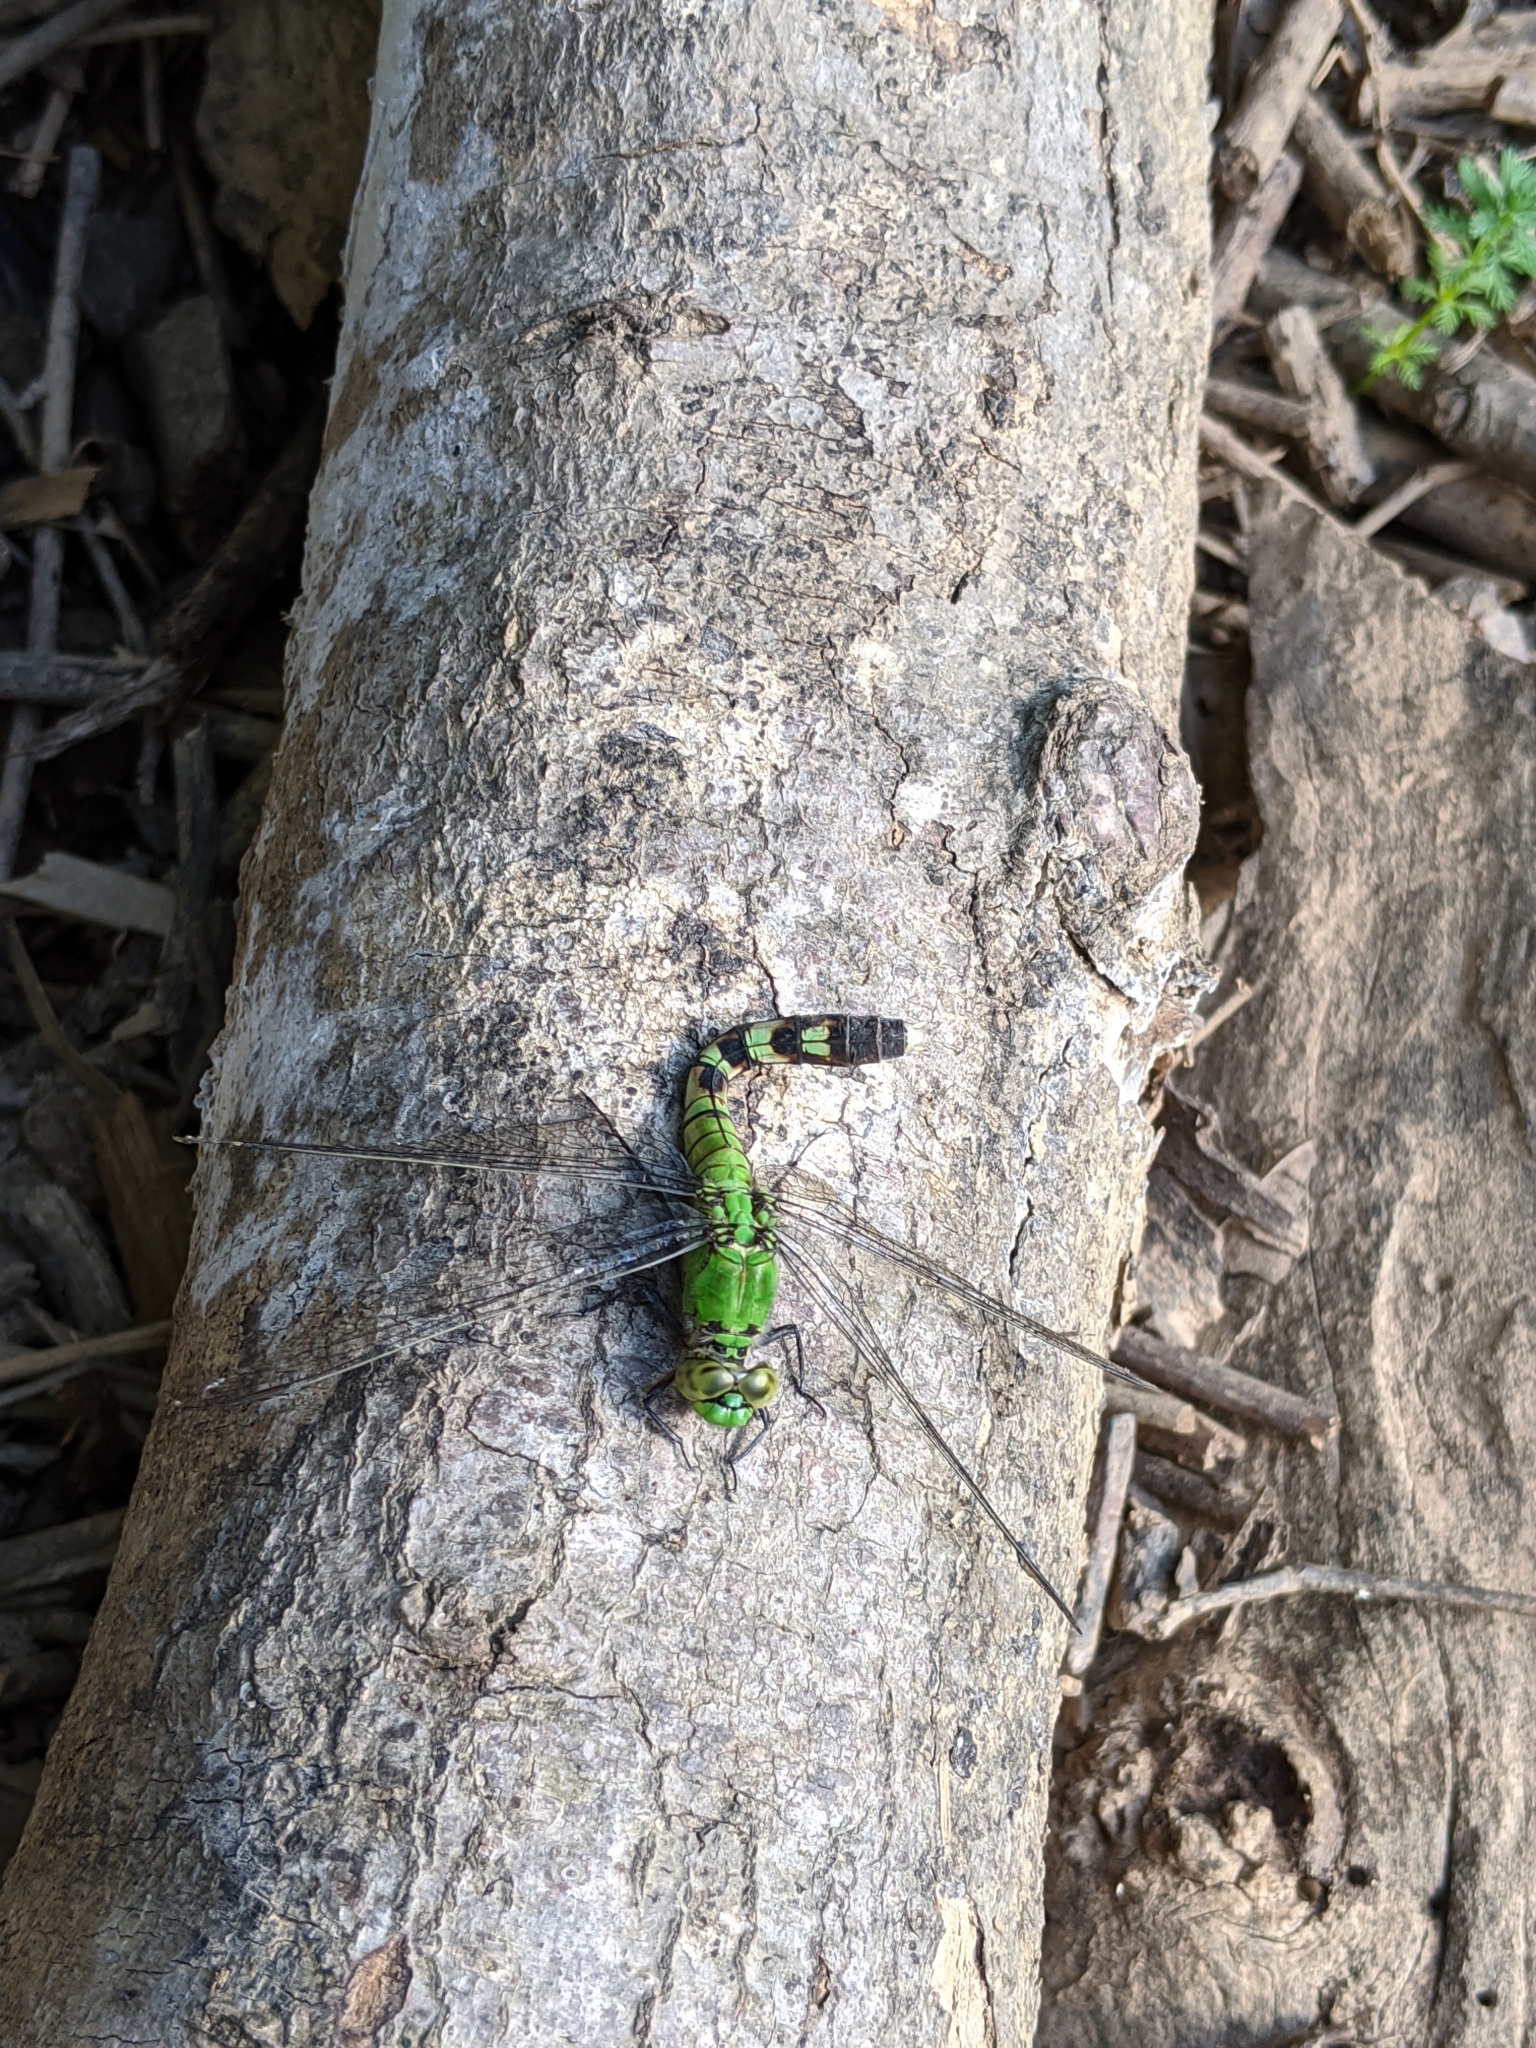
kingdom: Animalia
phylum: Arthropoda
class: Insecta
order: Odonata
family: Libellulidae
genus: Erythemis
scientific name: Erythemis simplicicollis
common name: Eastern pondhawk
